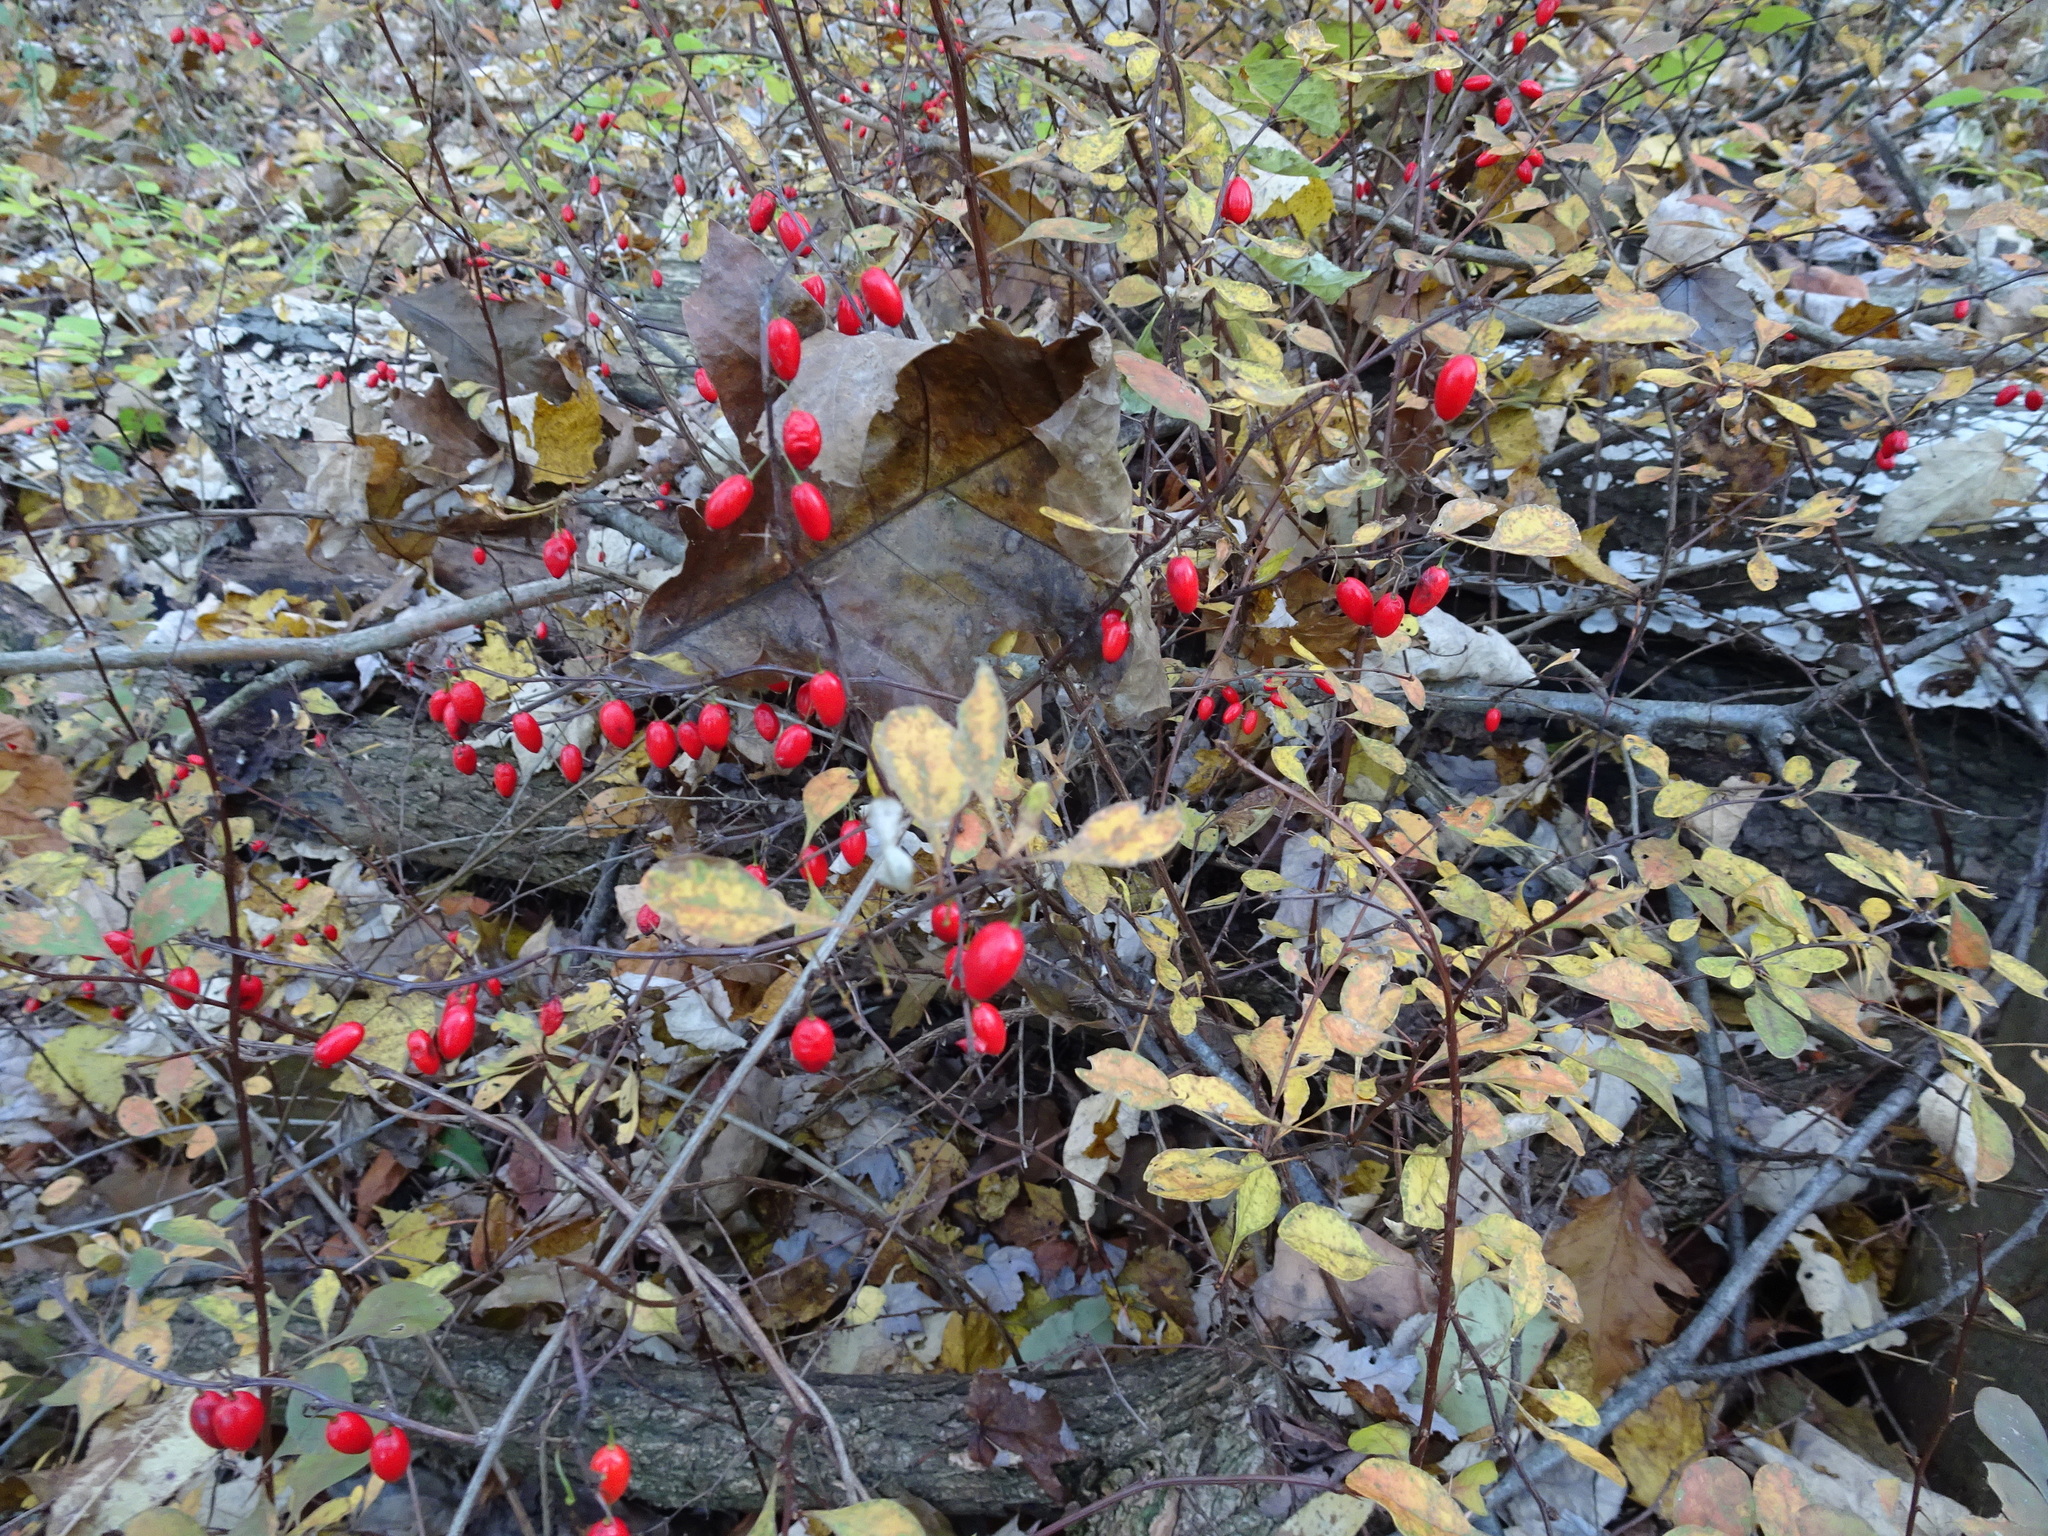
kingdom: Plantae
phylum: Tracheophyta
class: Magnoliopsida
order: Ranunculales
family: Berberidaceae
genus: Berberis
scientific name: Berberis thunbergii
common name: Japanese barberry
